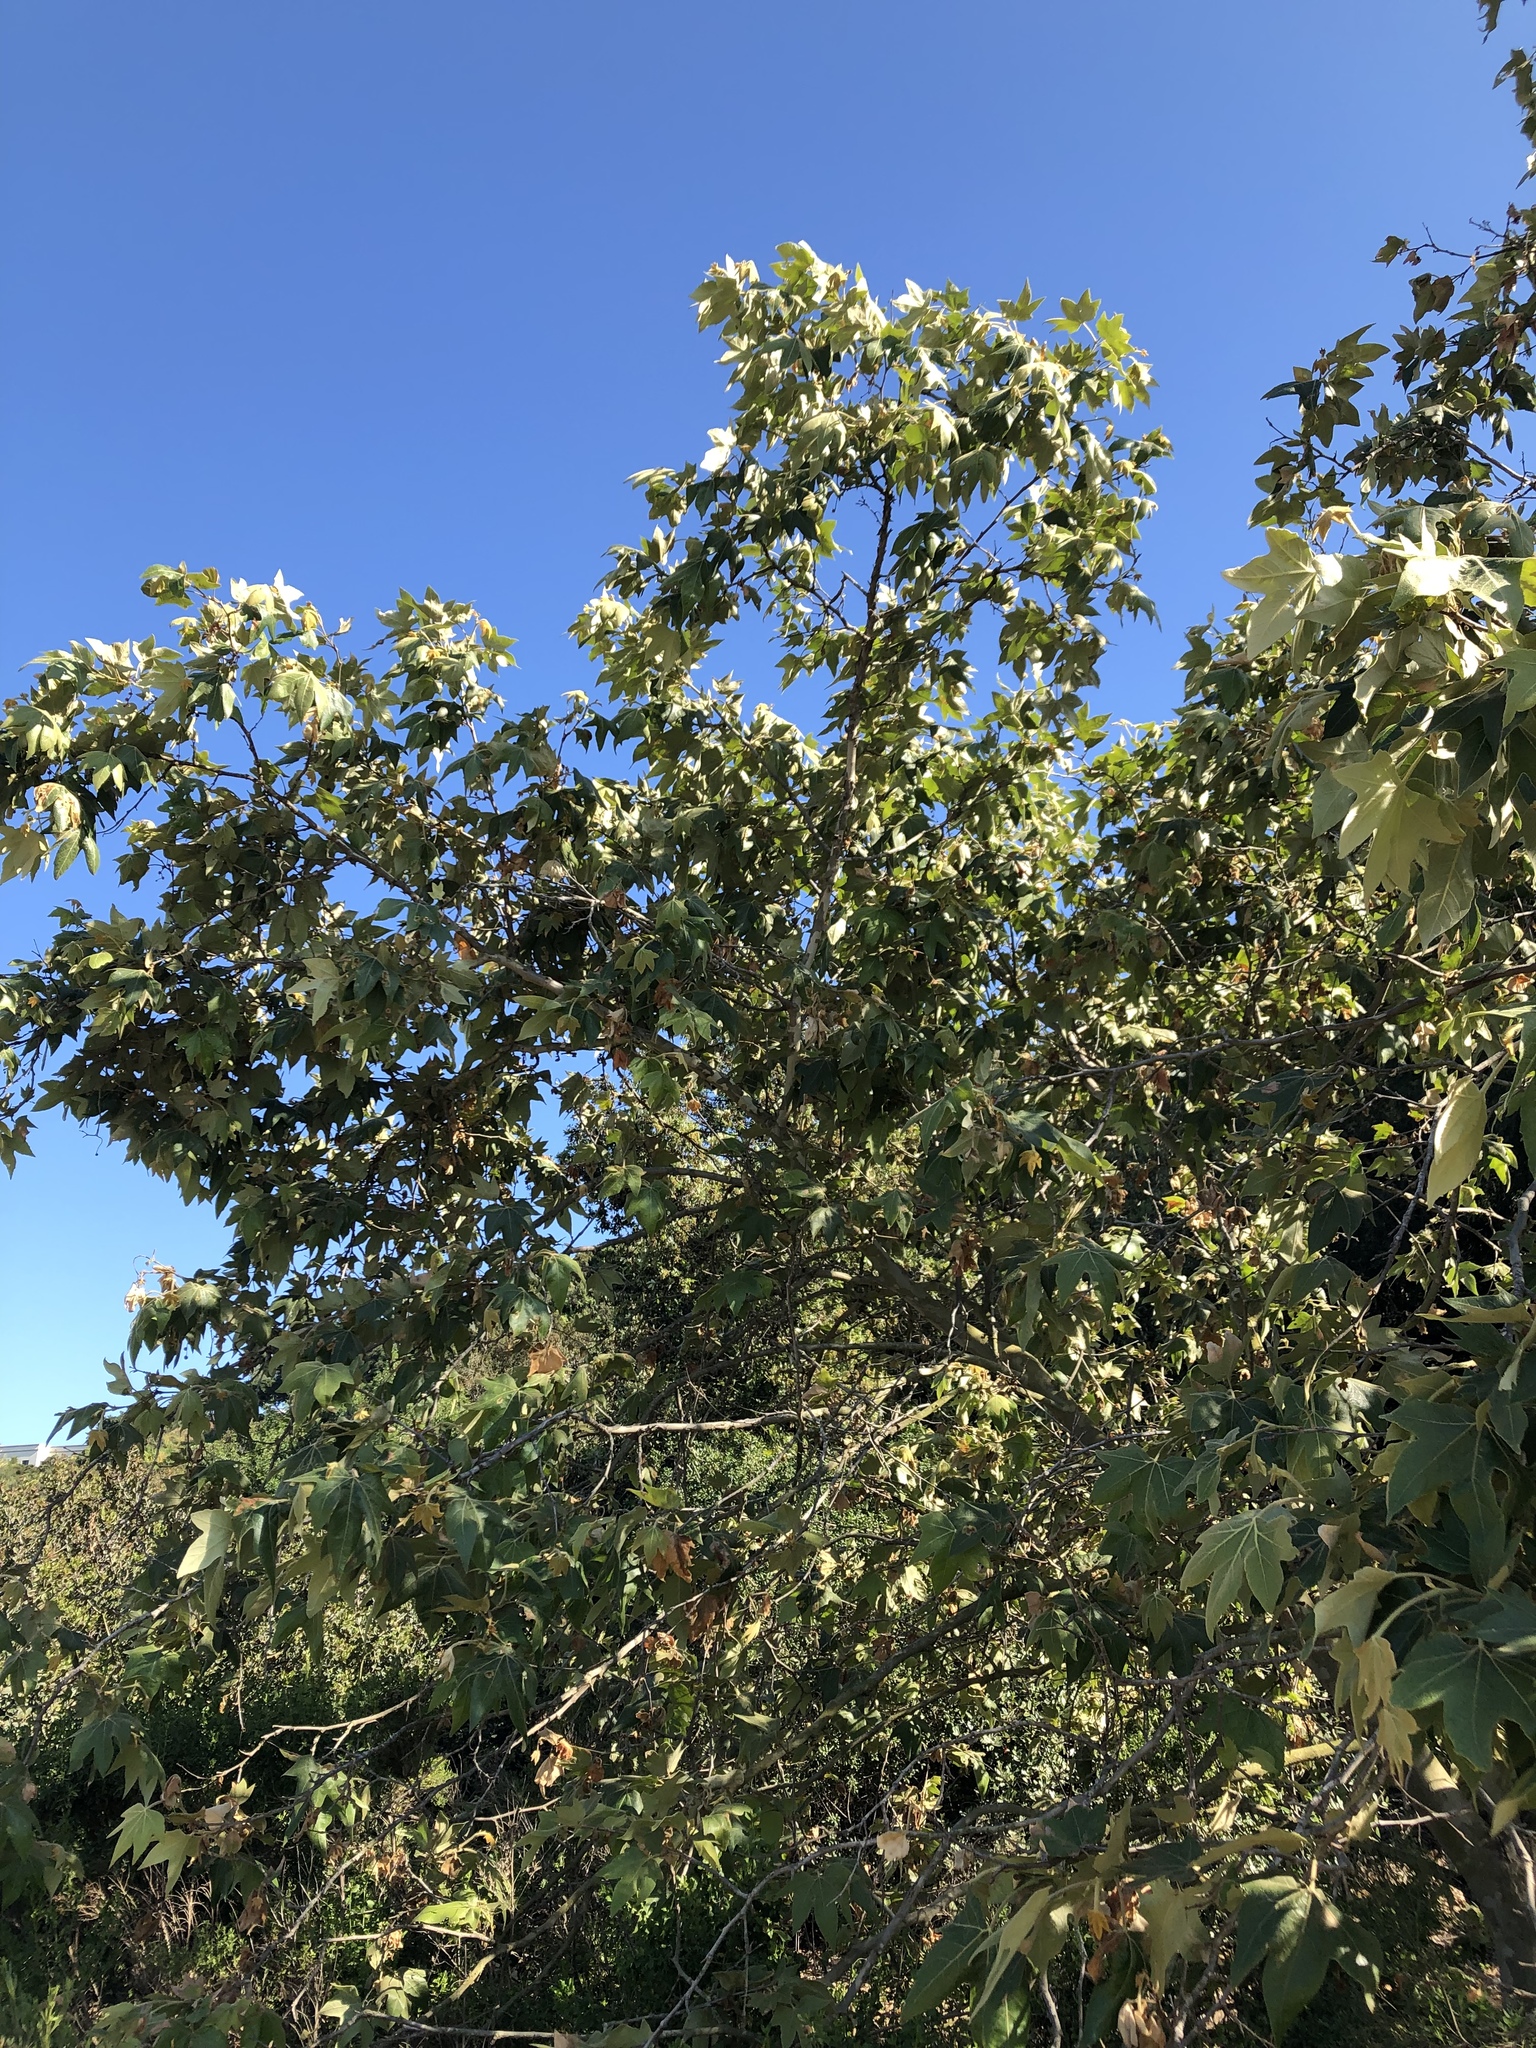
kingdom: Plantae
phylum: Tracheophyta
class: Magnoliopsida
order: Proteales
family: Platanaceae
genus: Platanus
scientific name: Platanus racemosa
